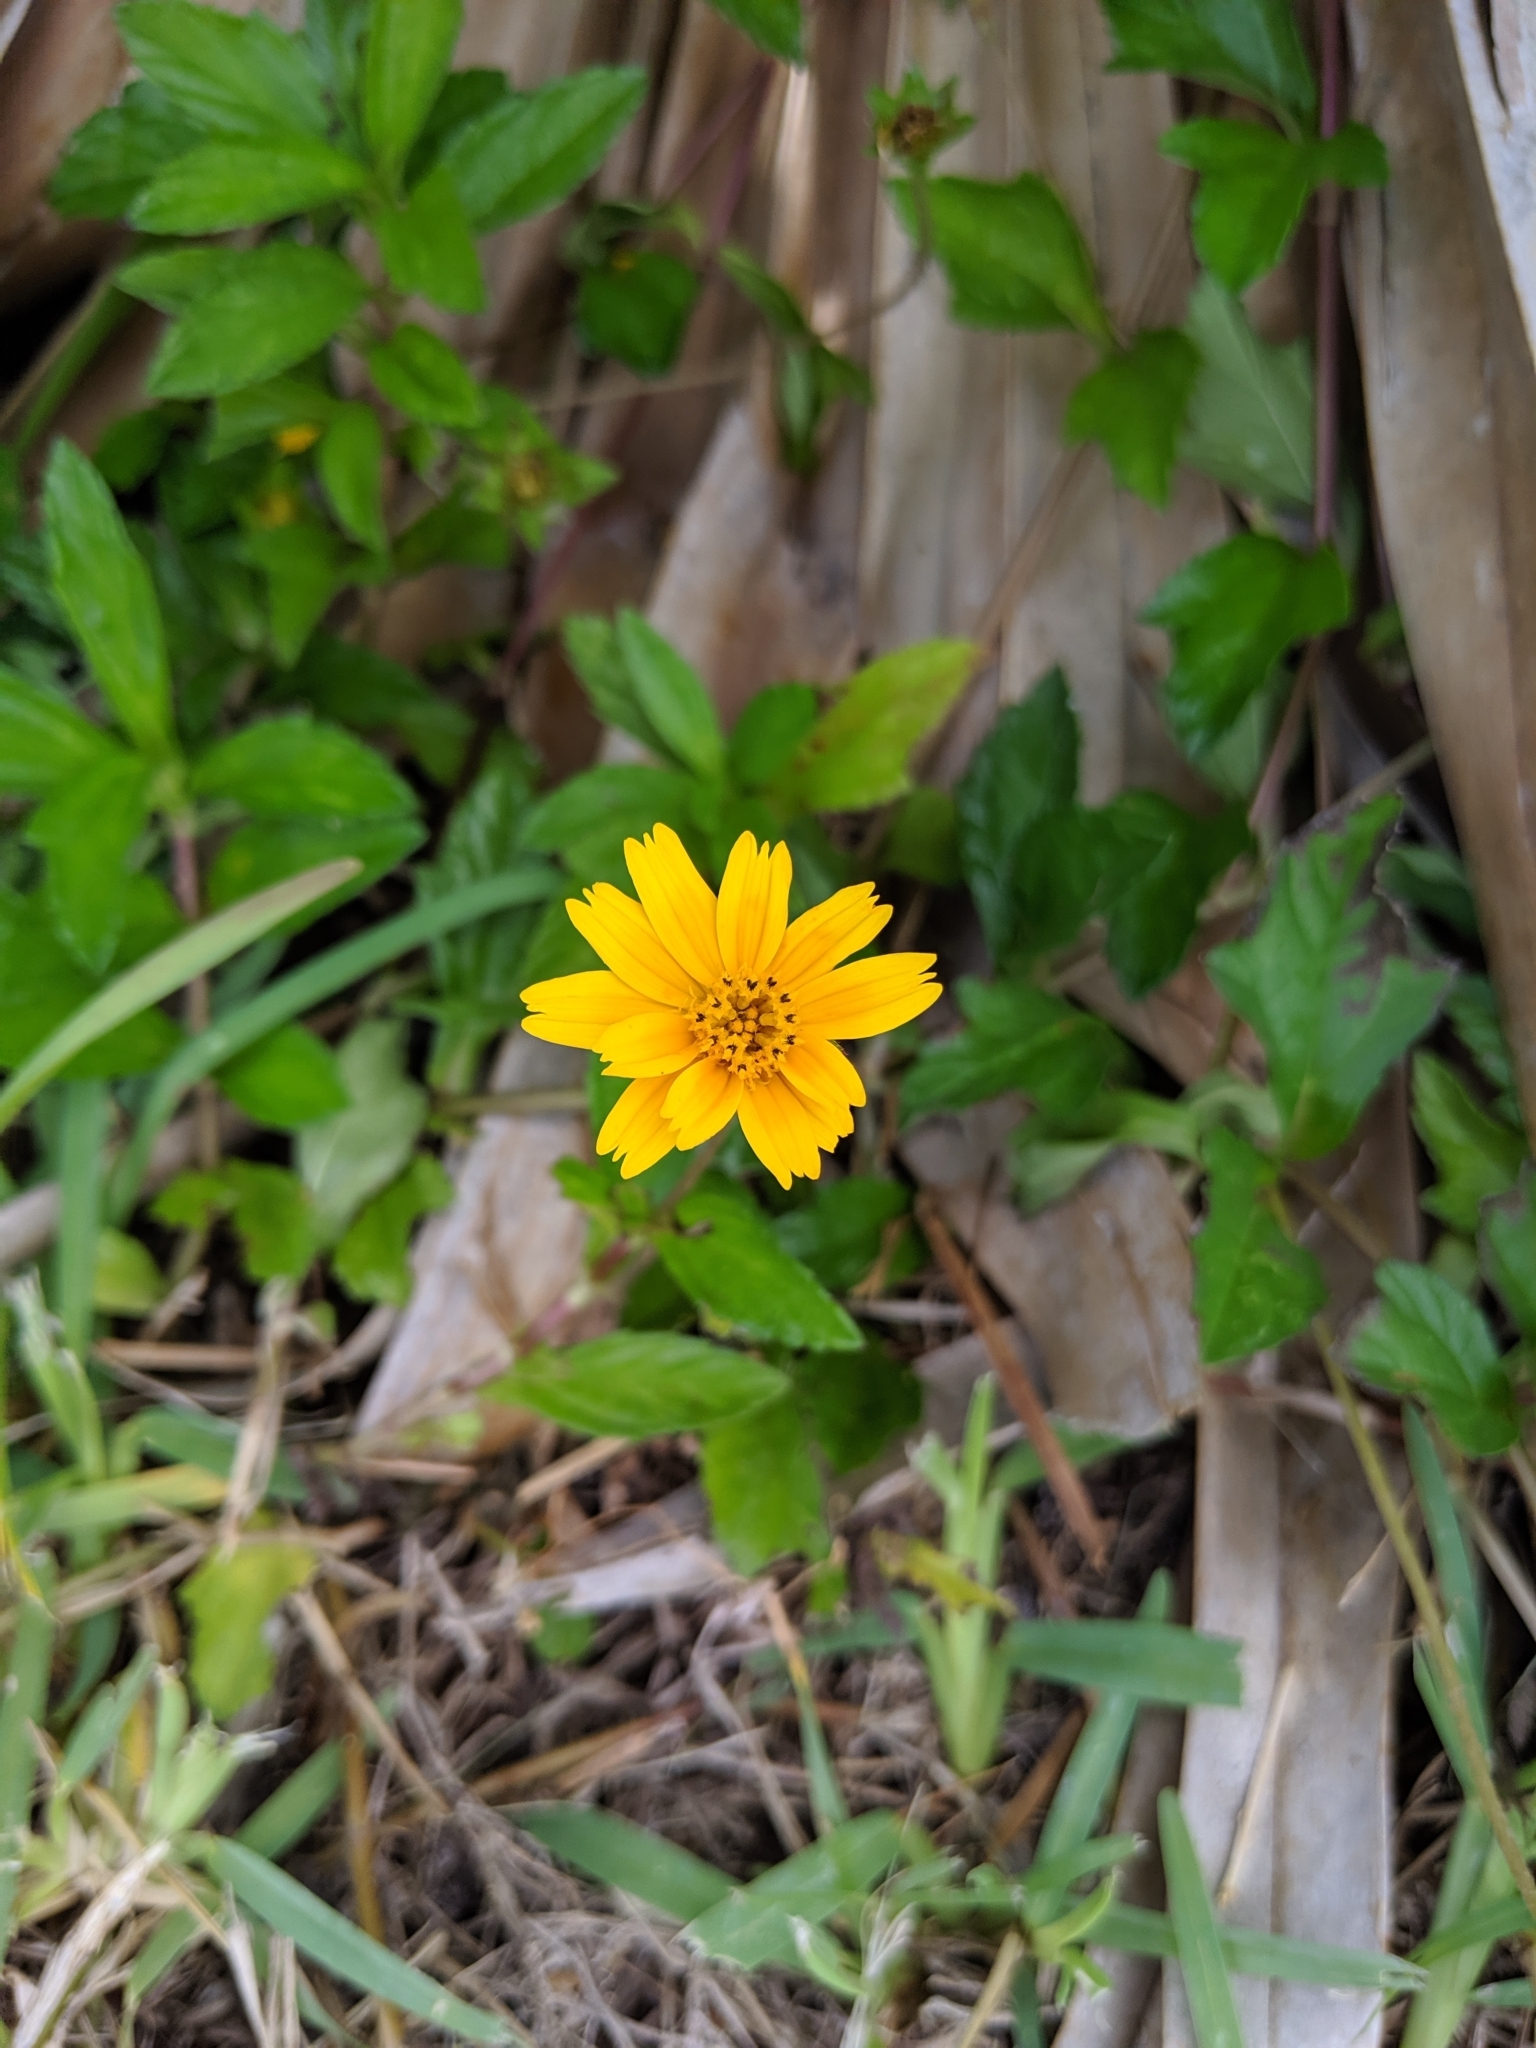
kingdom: Plantae
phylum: Tracheophyta
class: Magnoliopsida
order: Asterales
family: Asteraceae
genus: Sphagneticola
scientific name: Sphagneticola trilobata
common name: Bay biscayne creeping-oxeye
